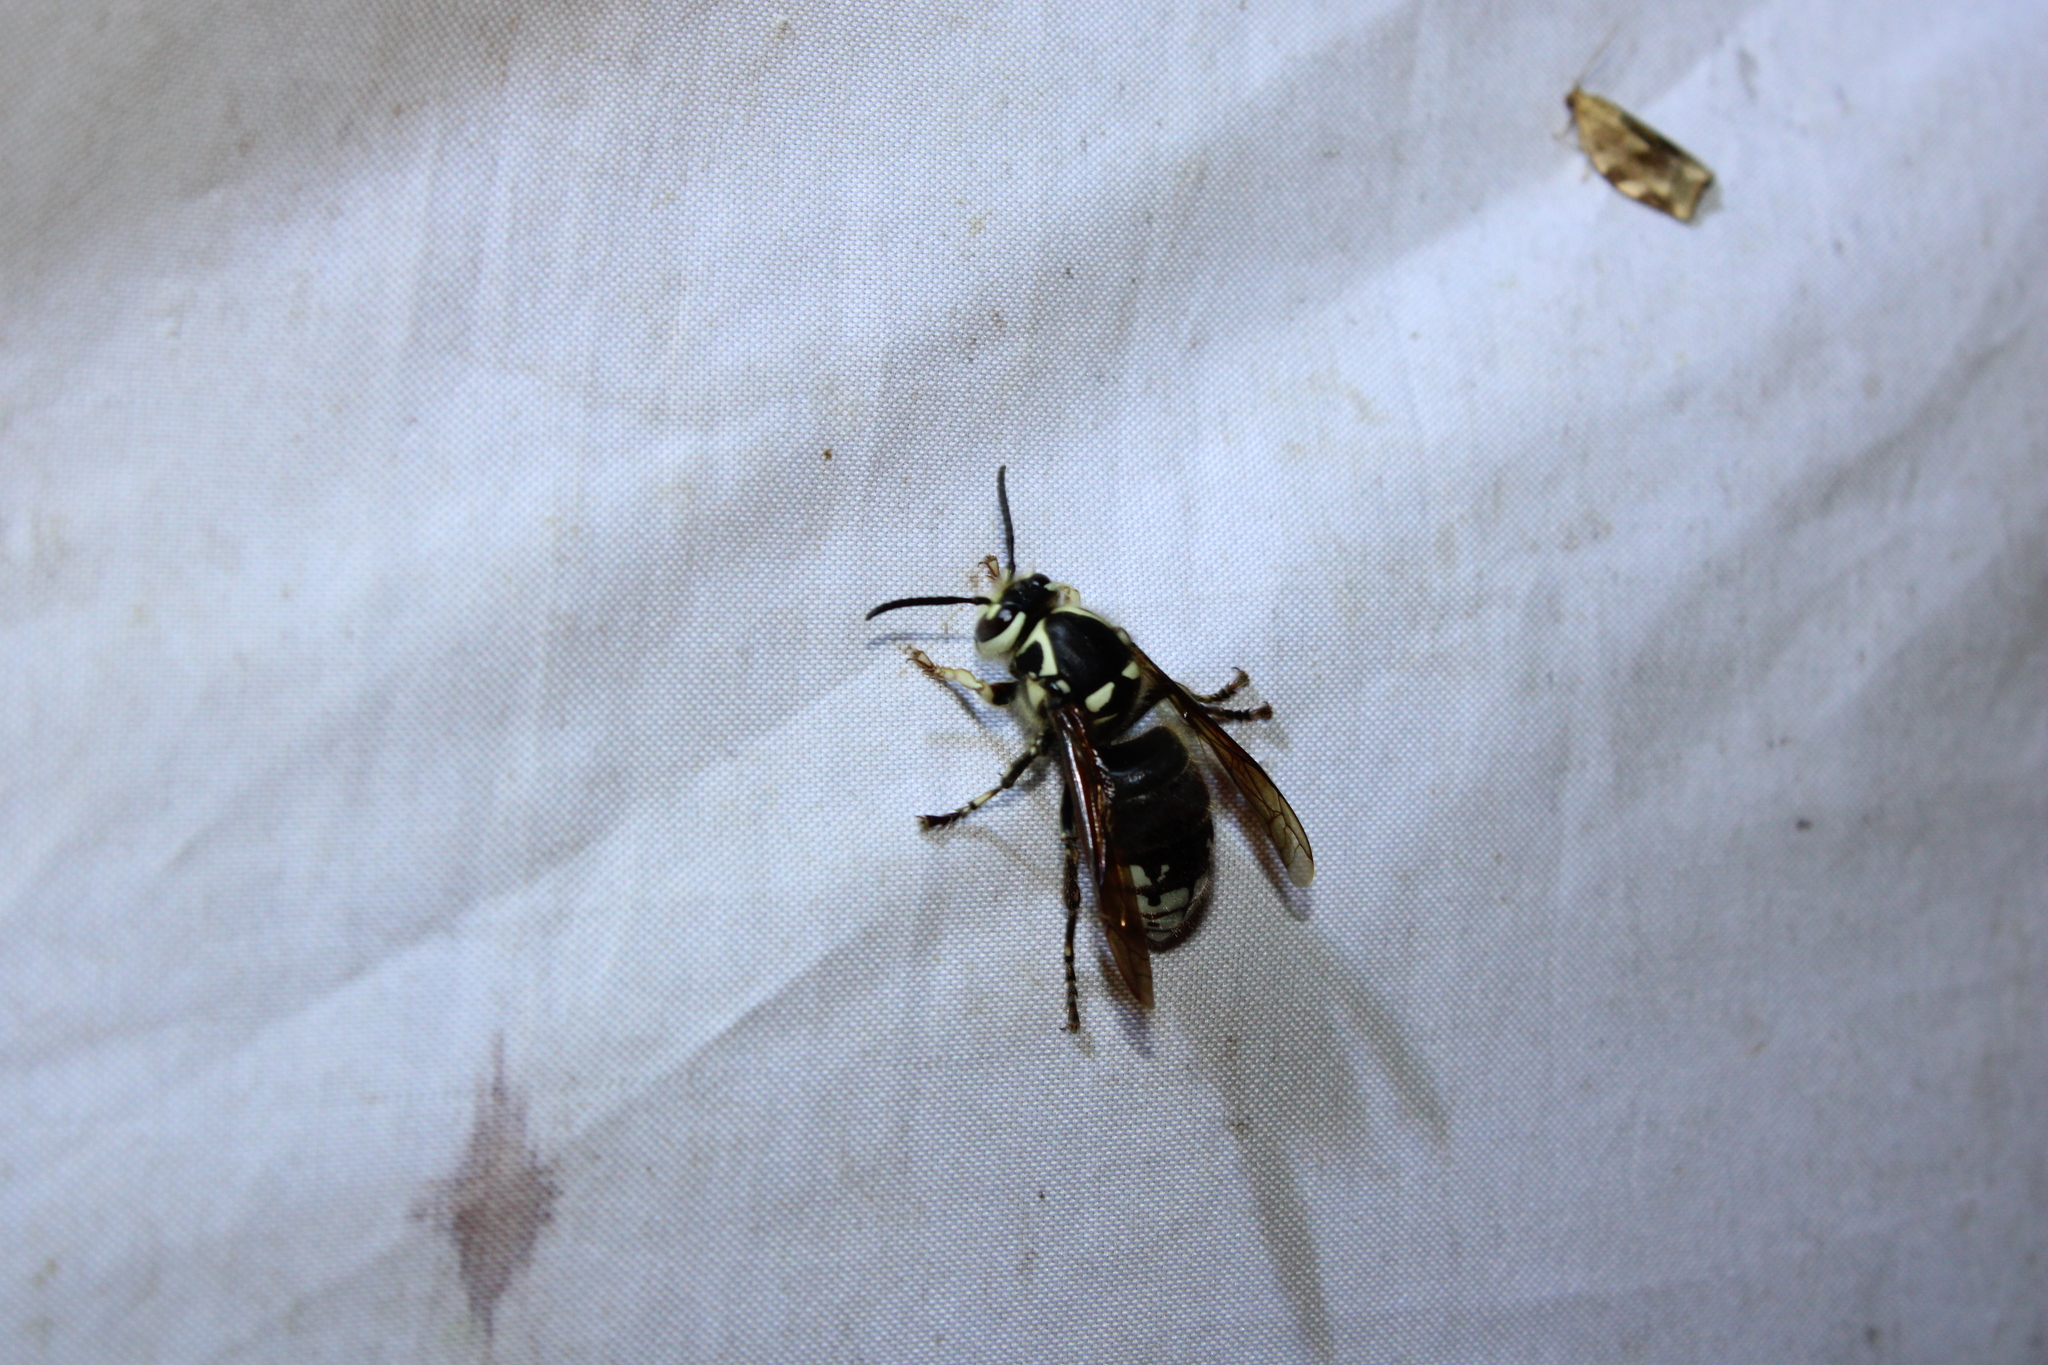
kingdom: Animalia
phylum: Arthropoda
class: Insecta
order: Hymenoptera
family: Vespidae
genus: Dolichovespula
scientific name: Dolichovespula maculata
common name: Bald-faced hornet
